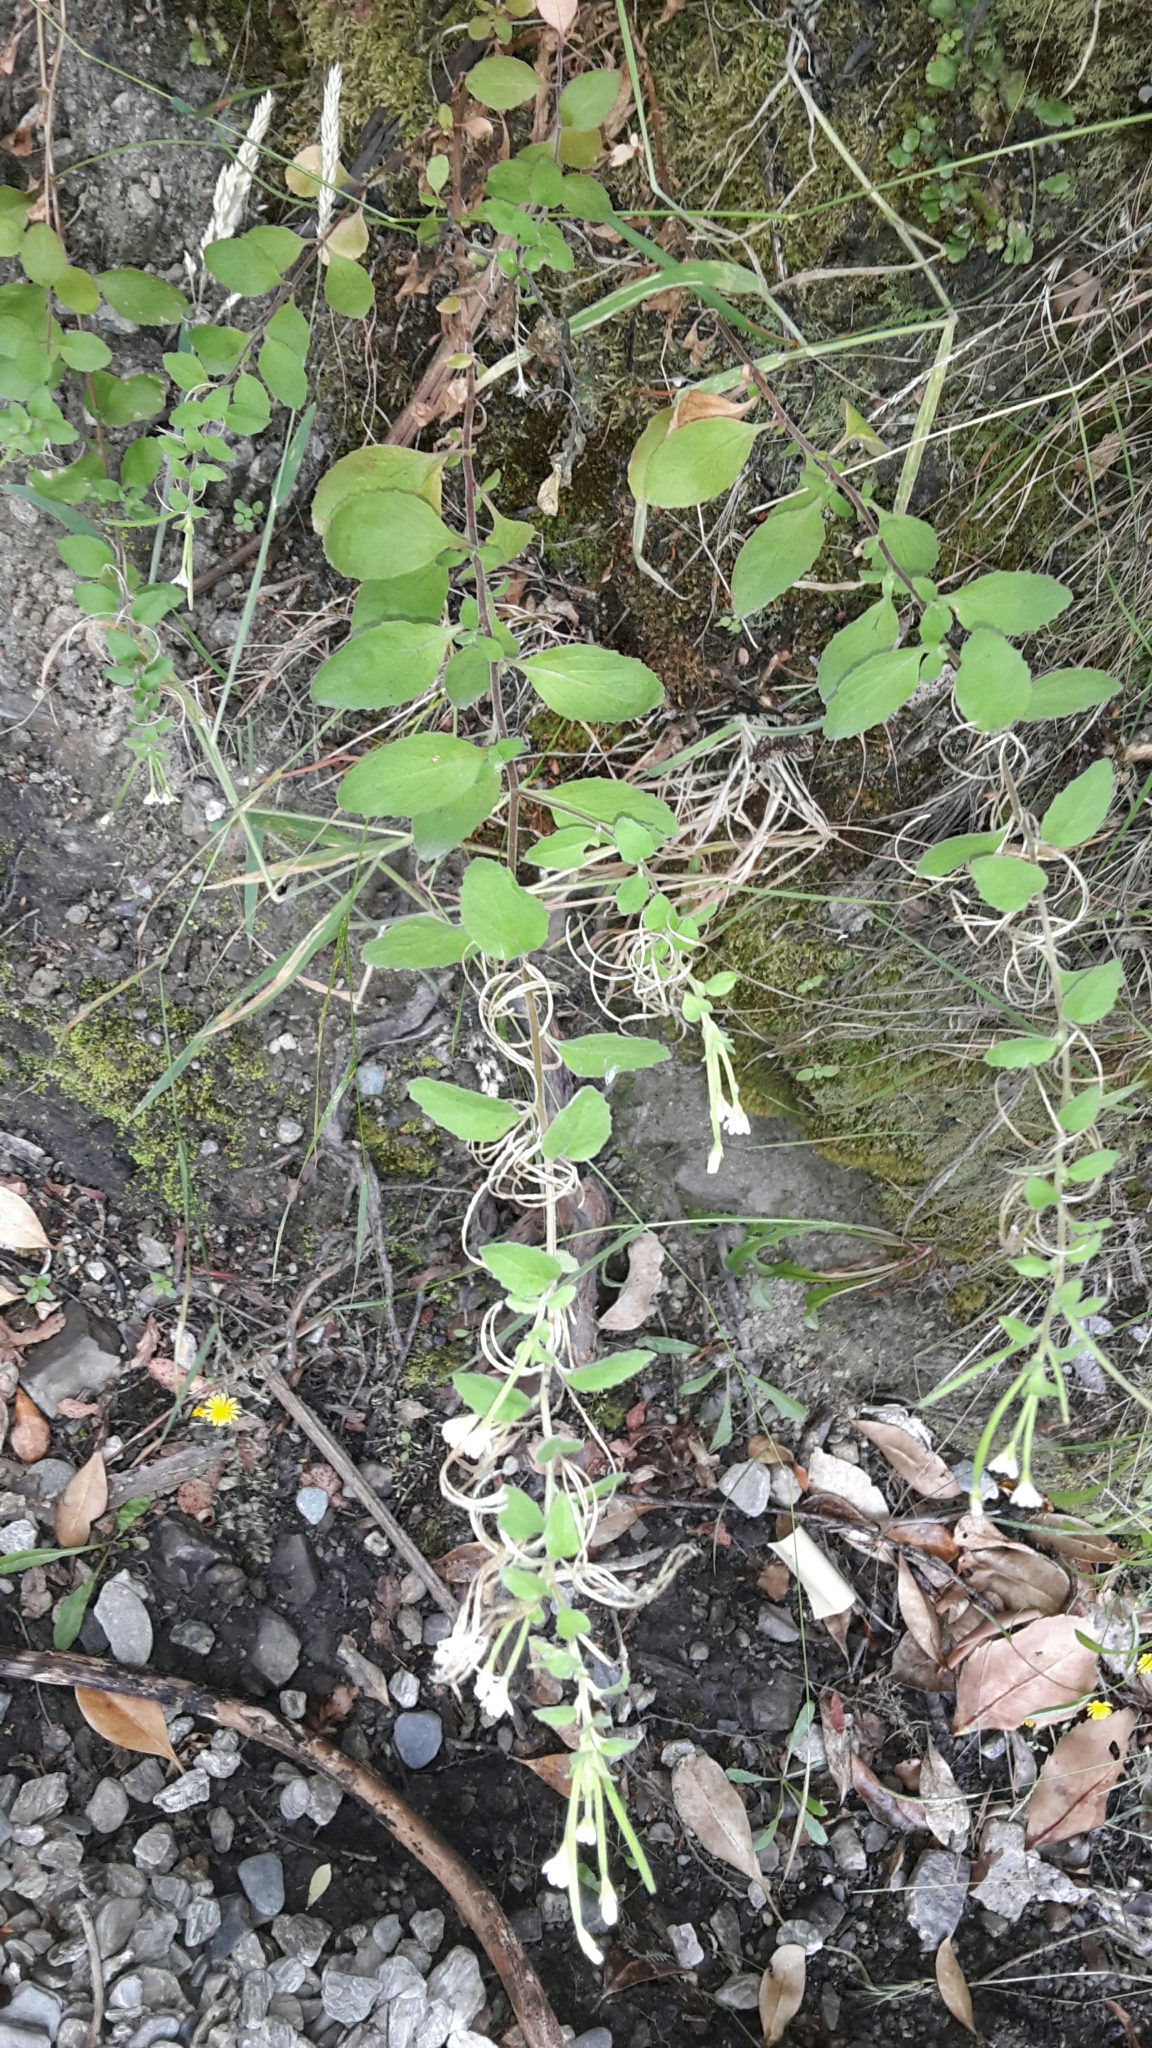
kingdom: Plantae
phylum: Tracheophyta
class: Magnoliopsida
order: Myrtales
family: Onagraceae
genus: Epilobium
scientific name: Epilobium pubens
